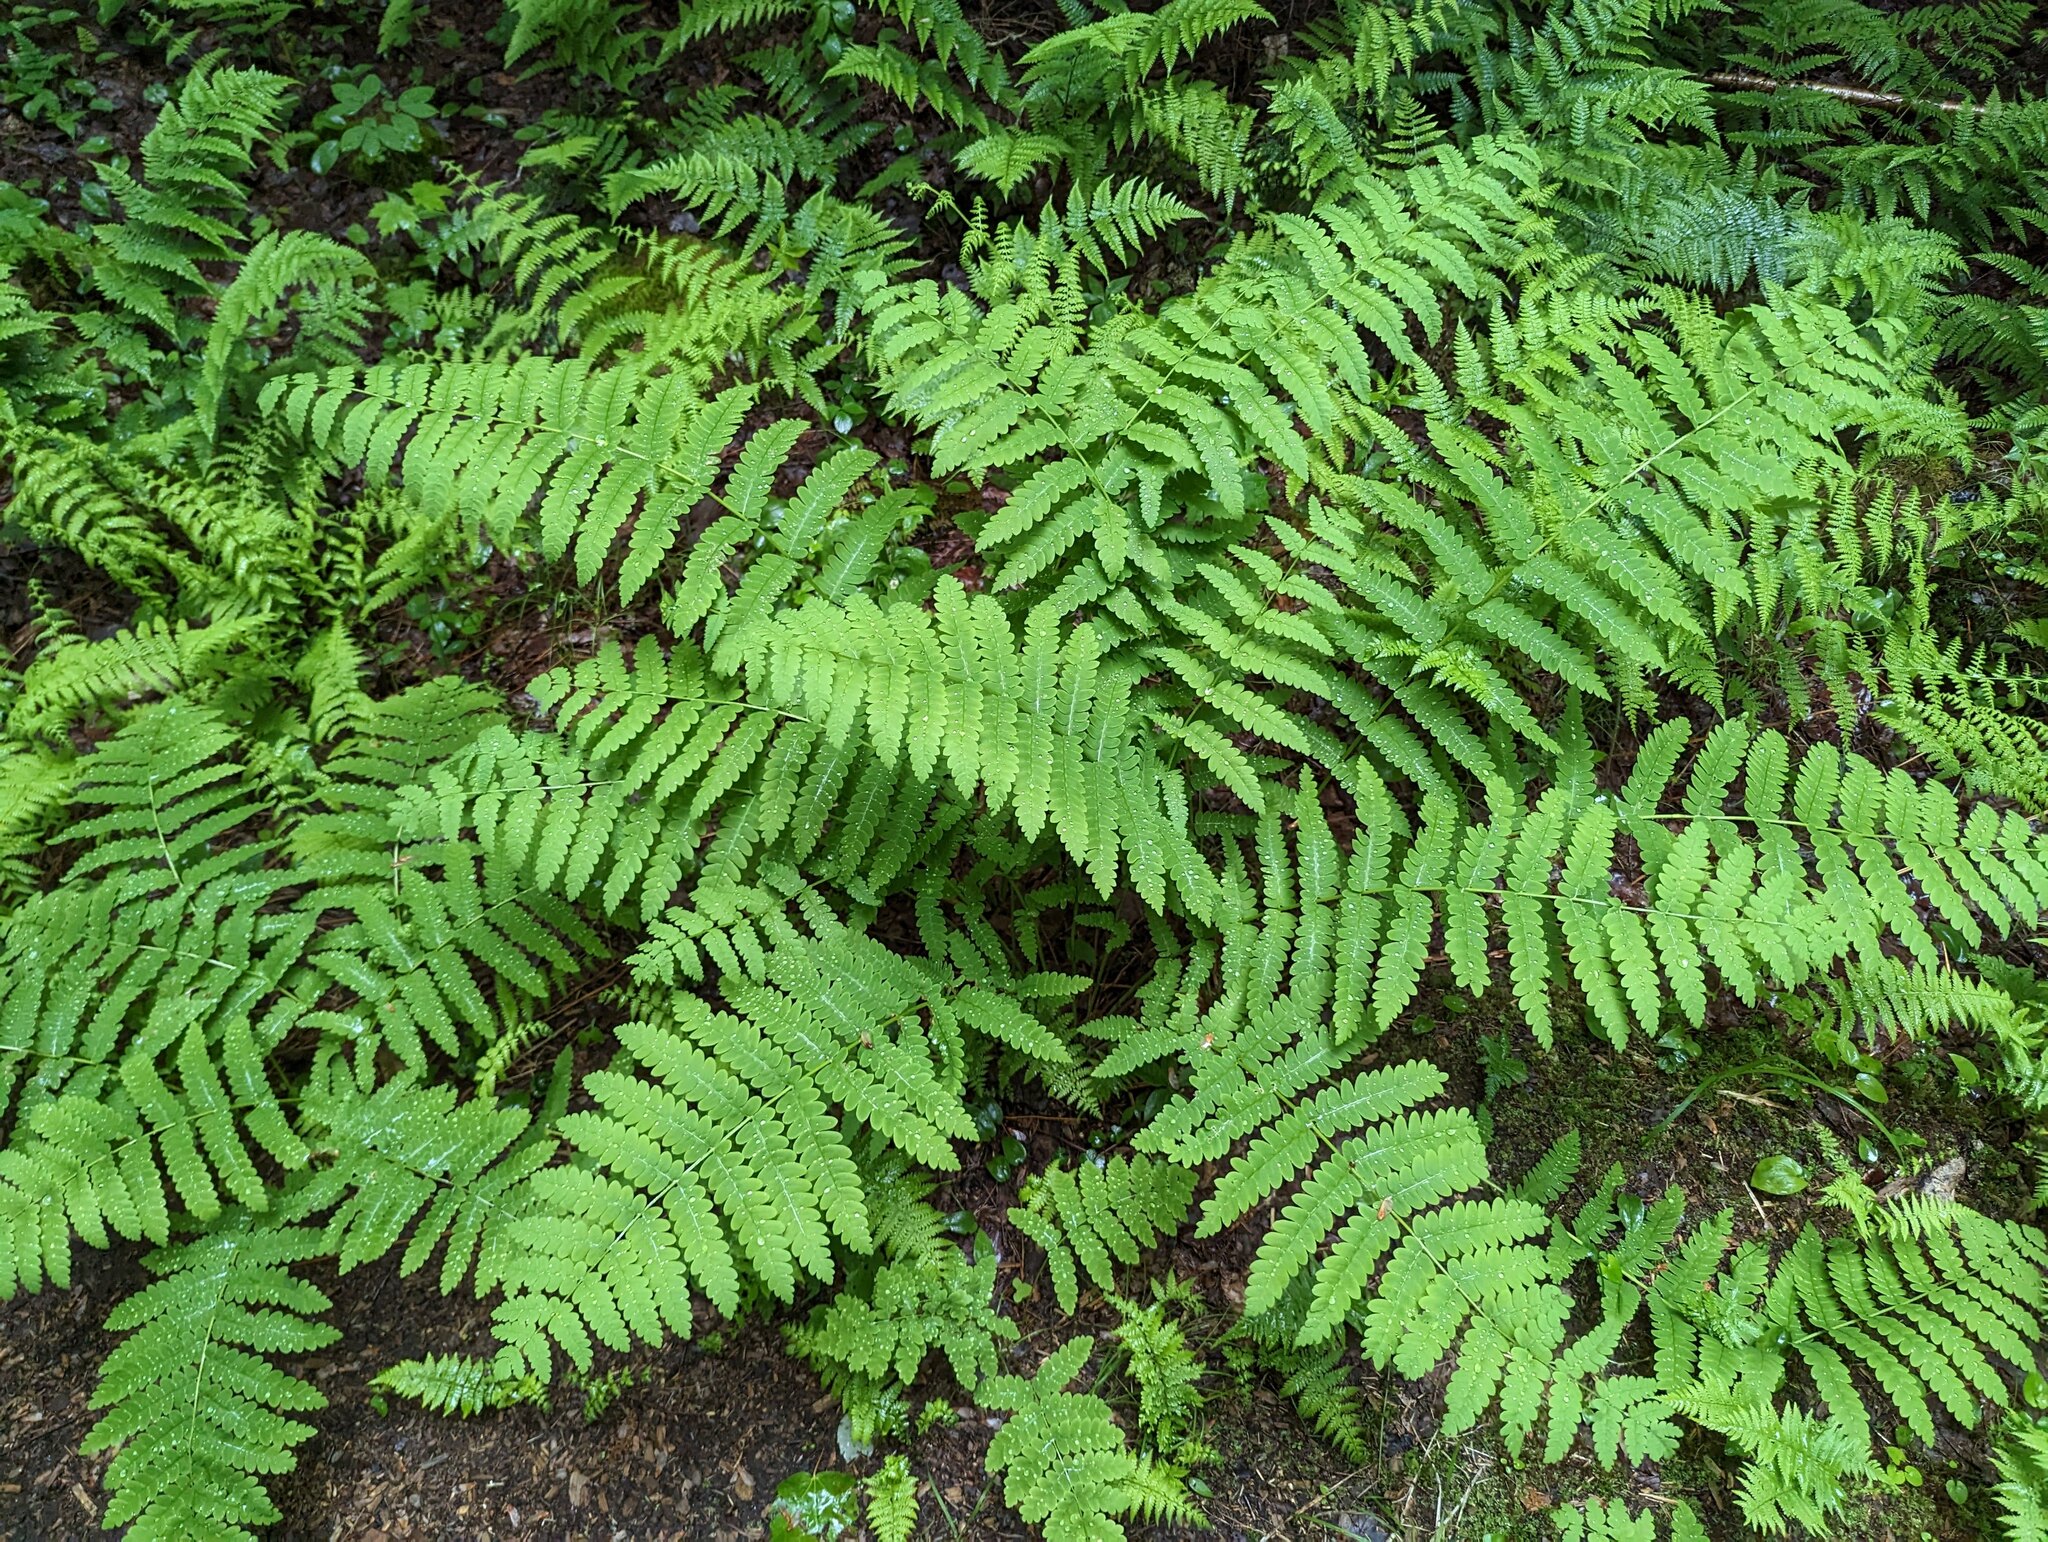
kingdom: Plantae
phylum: Tracheophyta
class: Polypodiopsida
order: Osmundales
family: Osmundaceae
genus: Claytosmunda
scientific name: Claytosmunda claytoniana
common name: Clayton's fern
